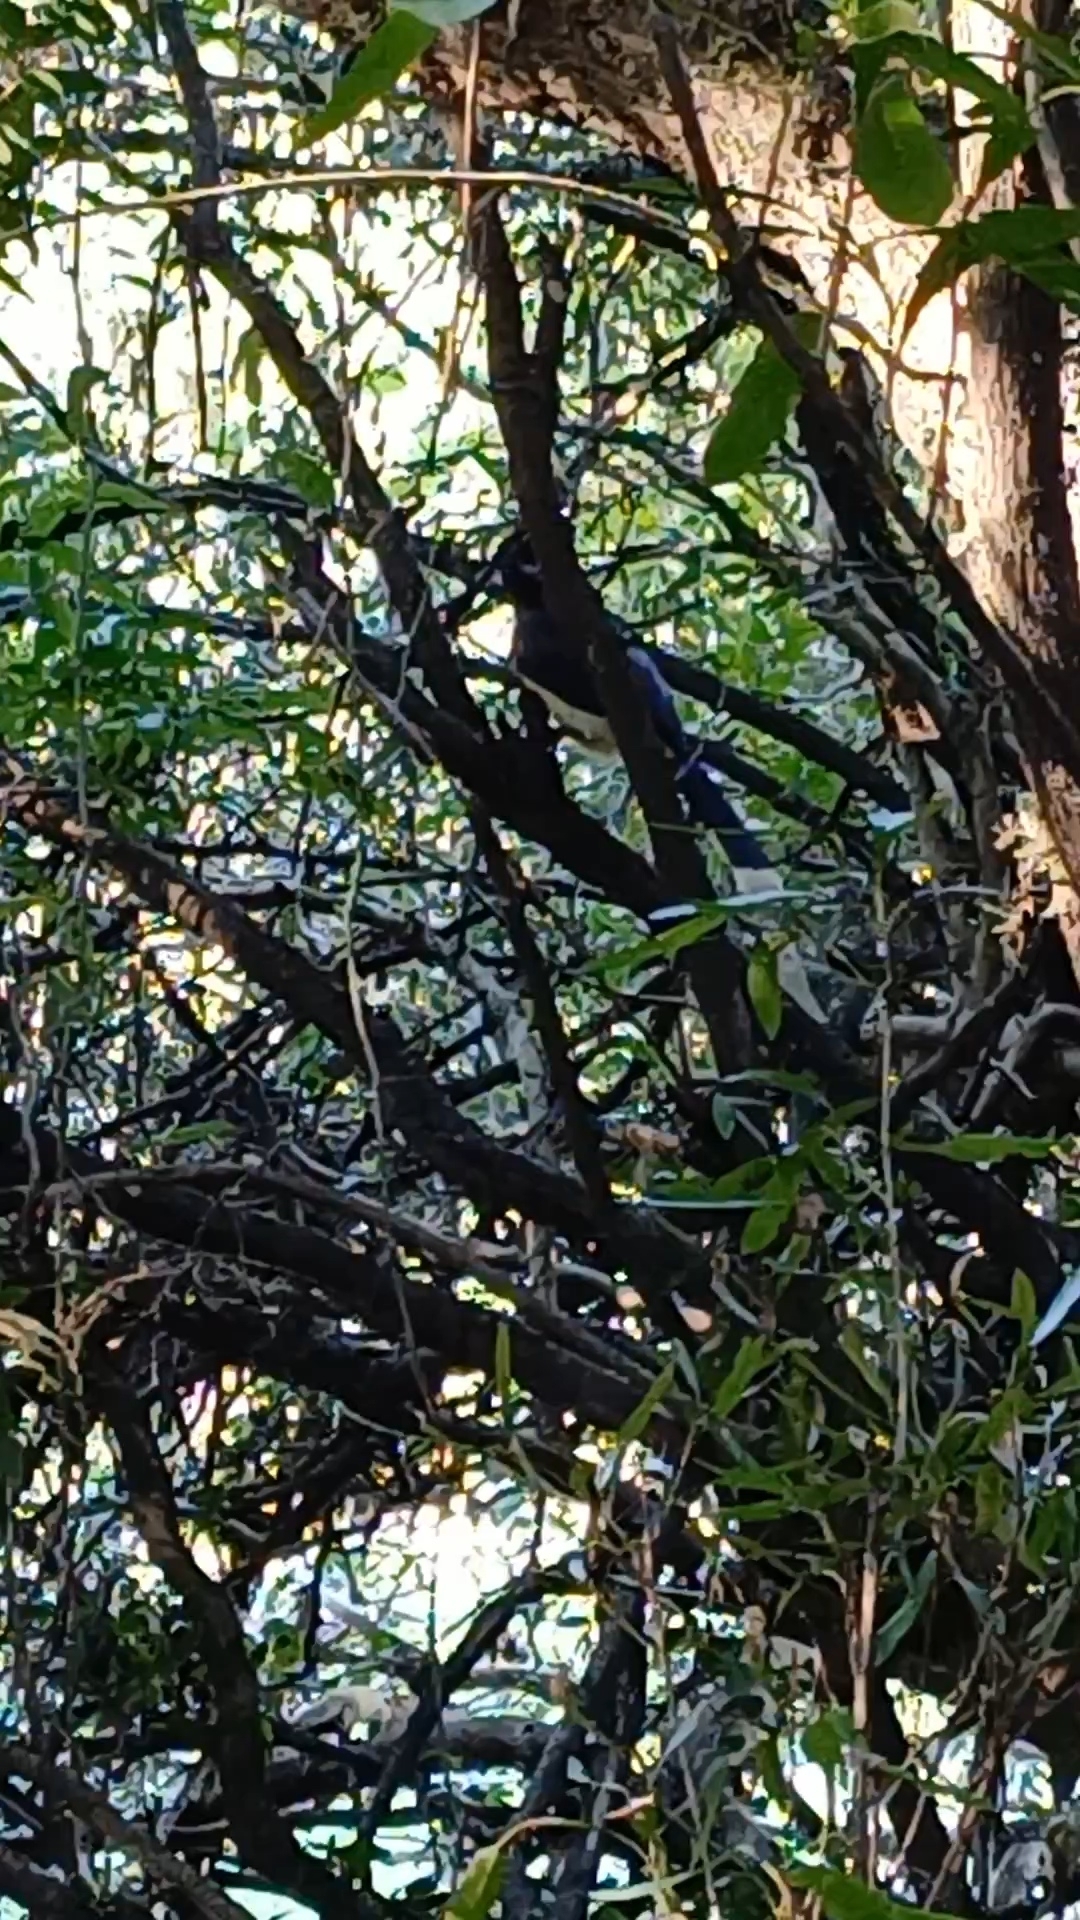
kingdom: Animalia
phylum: Chordata
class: Aves
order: Passeriformes
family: Corvidae
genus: Cyanocorax
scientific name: Cyanocorax chrysops
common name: Plush-crested jay
